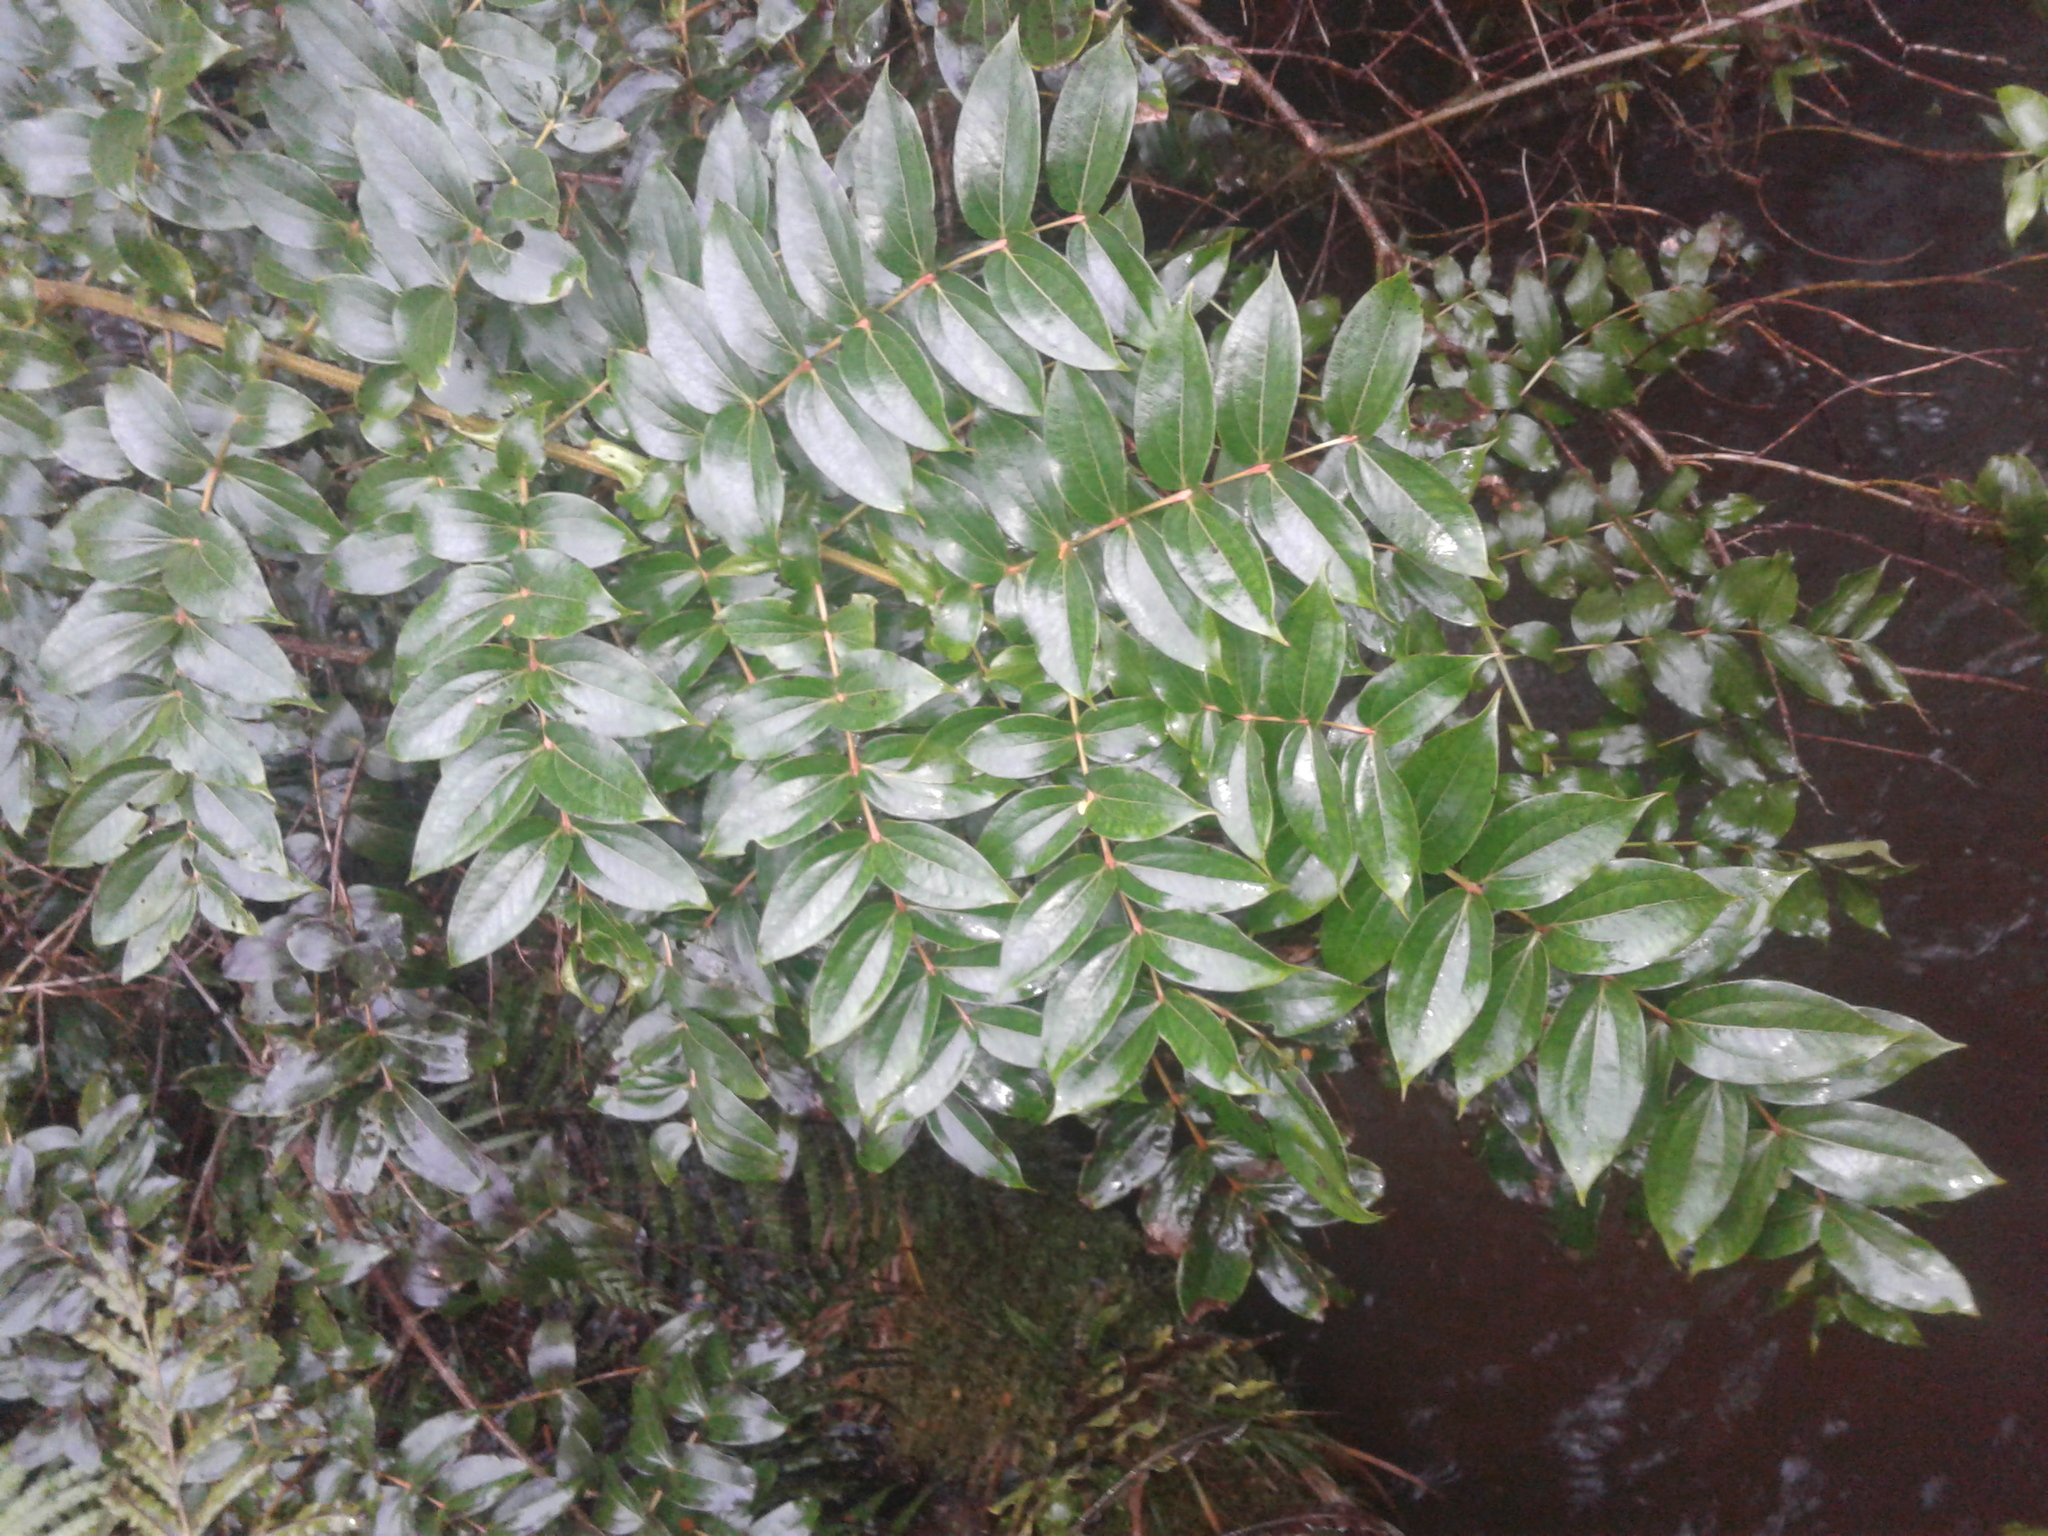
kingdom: Plantae
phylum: Tracheophyta
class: Magnoliopsida
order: Cucurbitales
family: Coriariaceae
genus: Coriaria
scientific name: Coriaria
